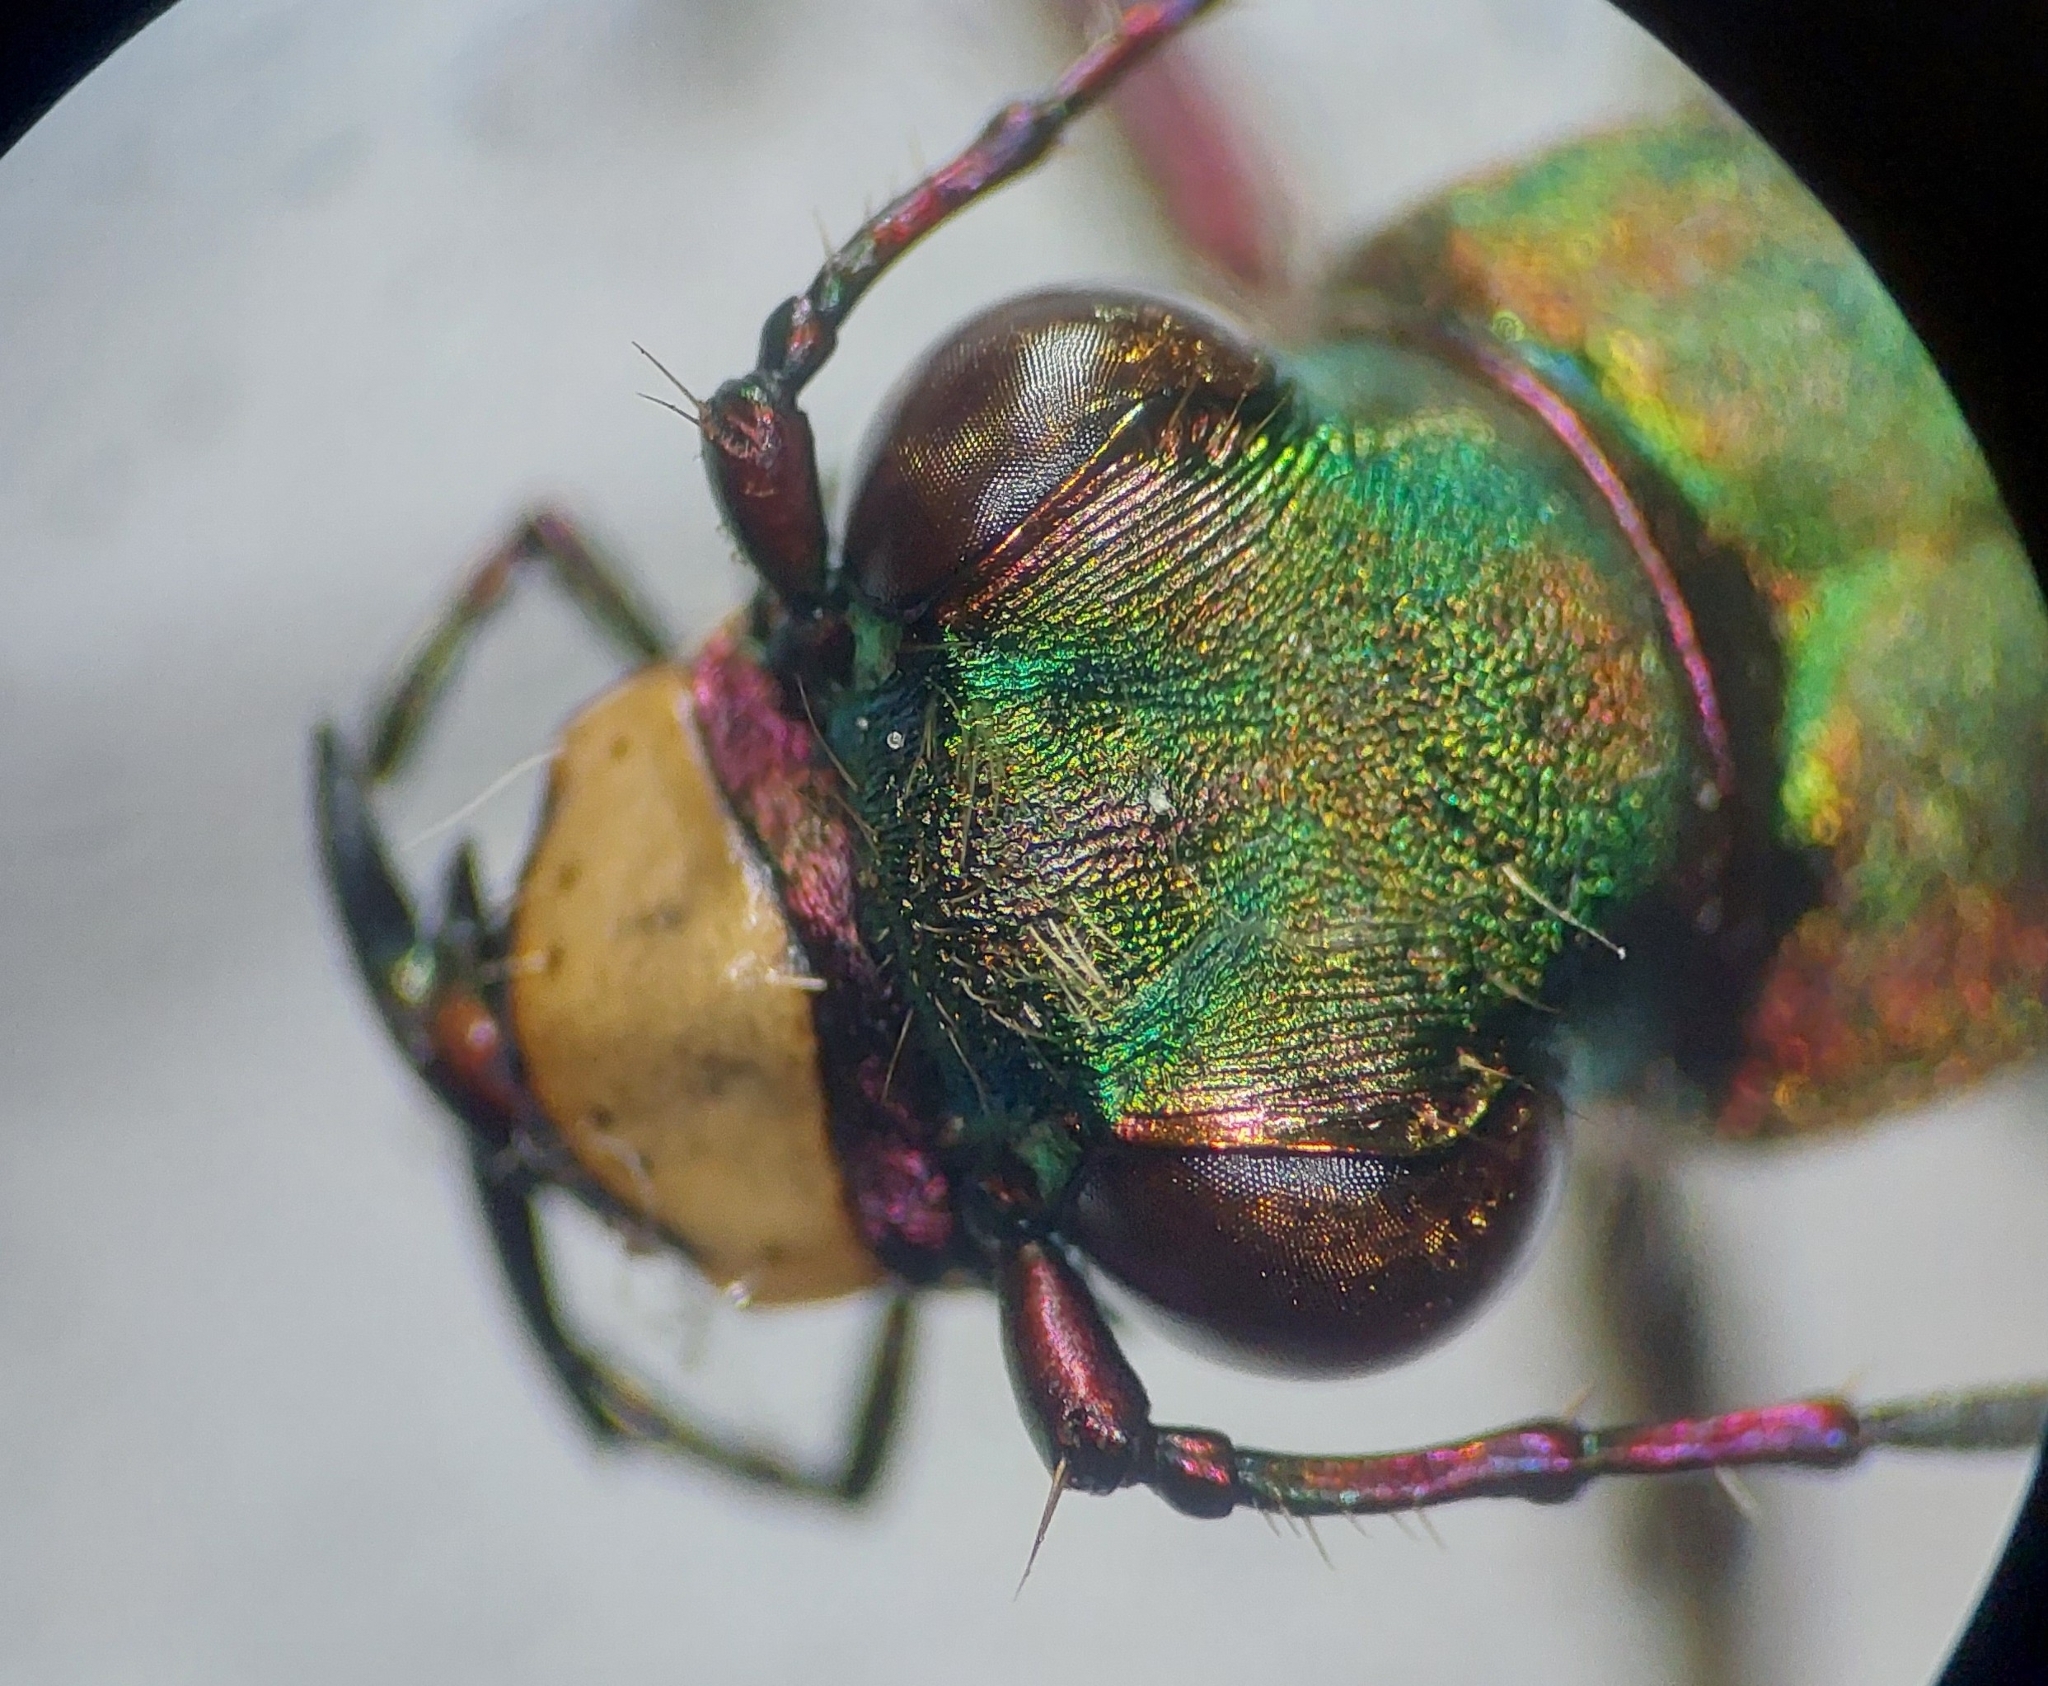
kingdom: Animalia
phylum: Arthropoda
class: Insecta
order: Coleoptera
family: Carabidae
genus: Cicindela
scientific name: Cicindela campestris
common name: Common tiger beetle
